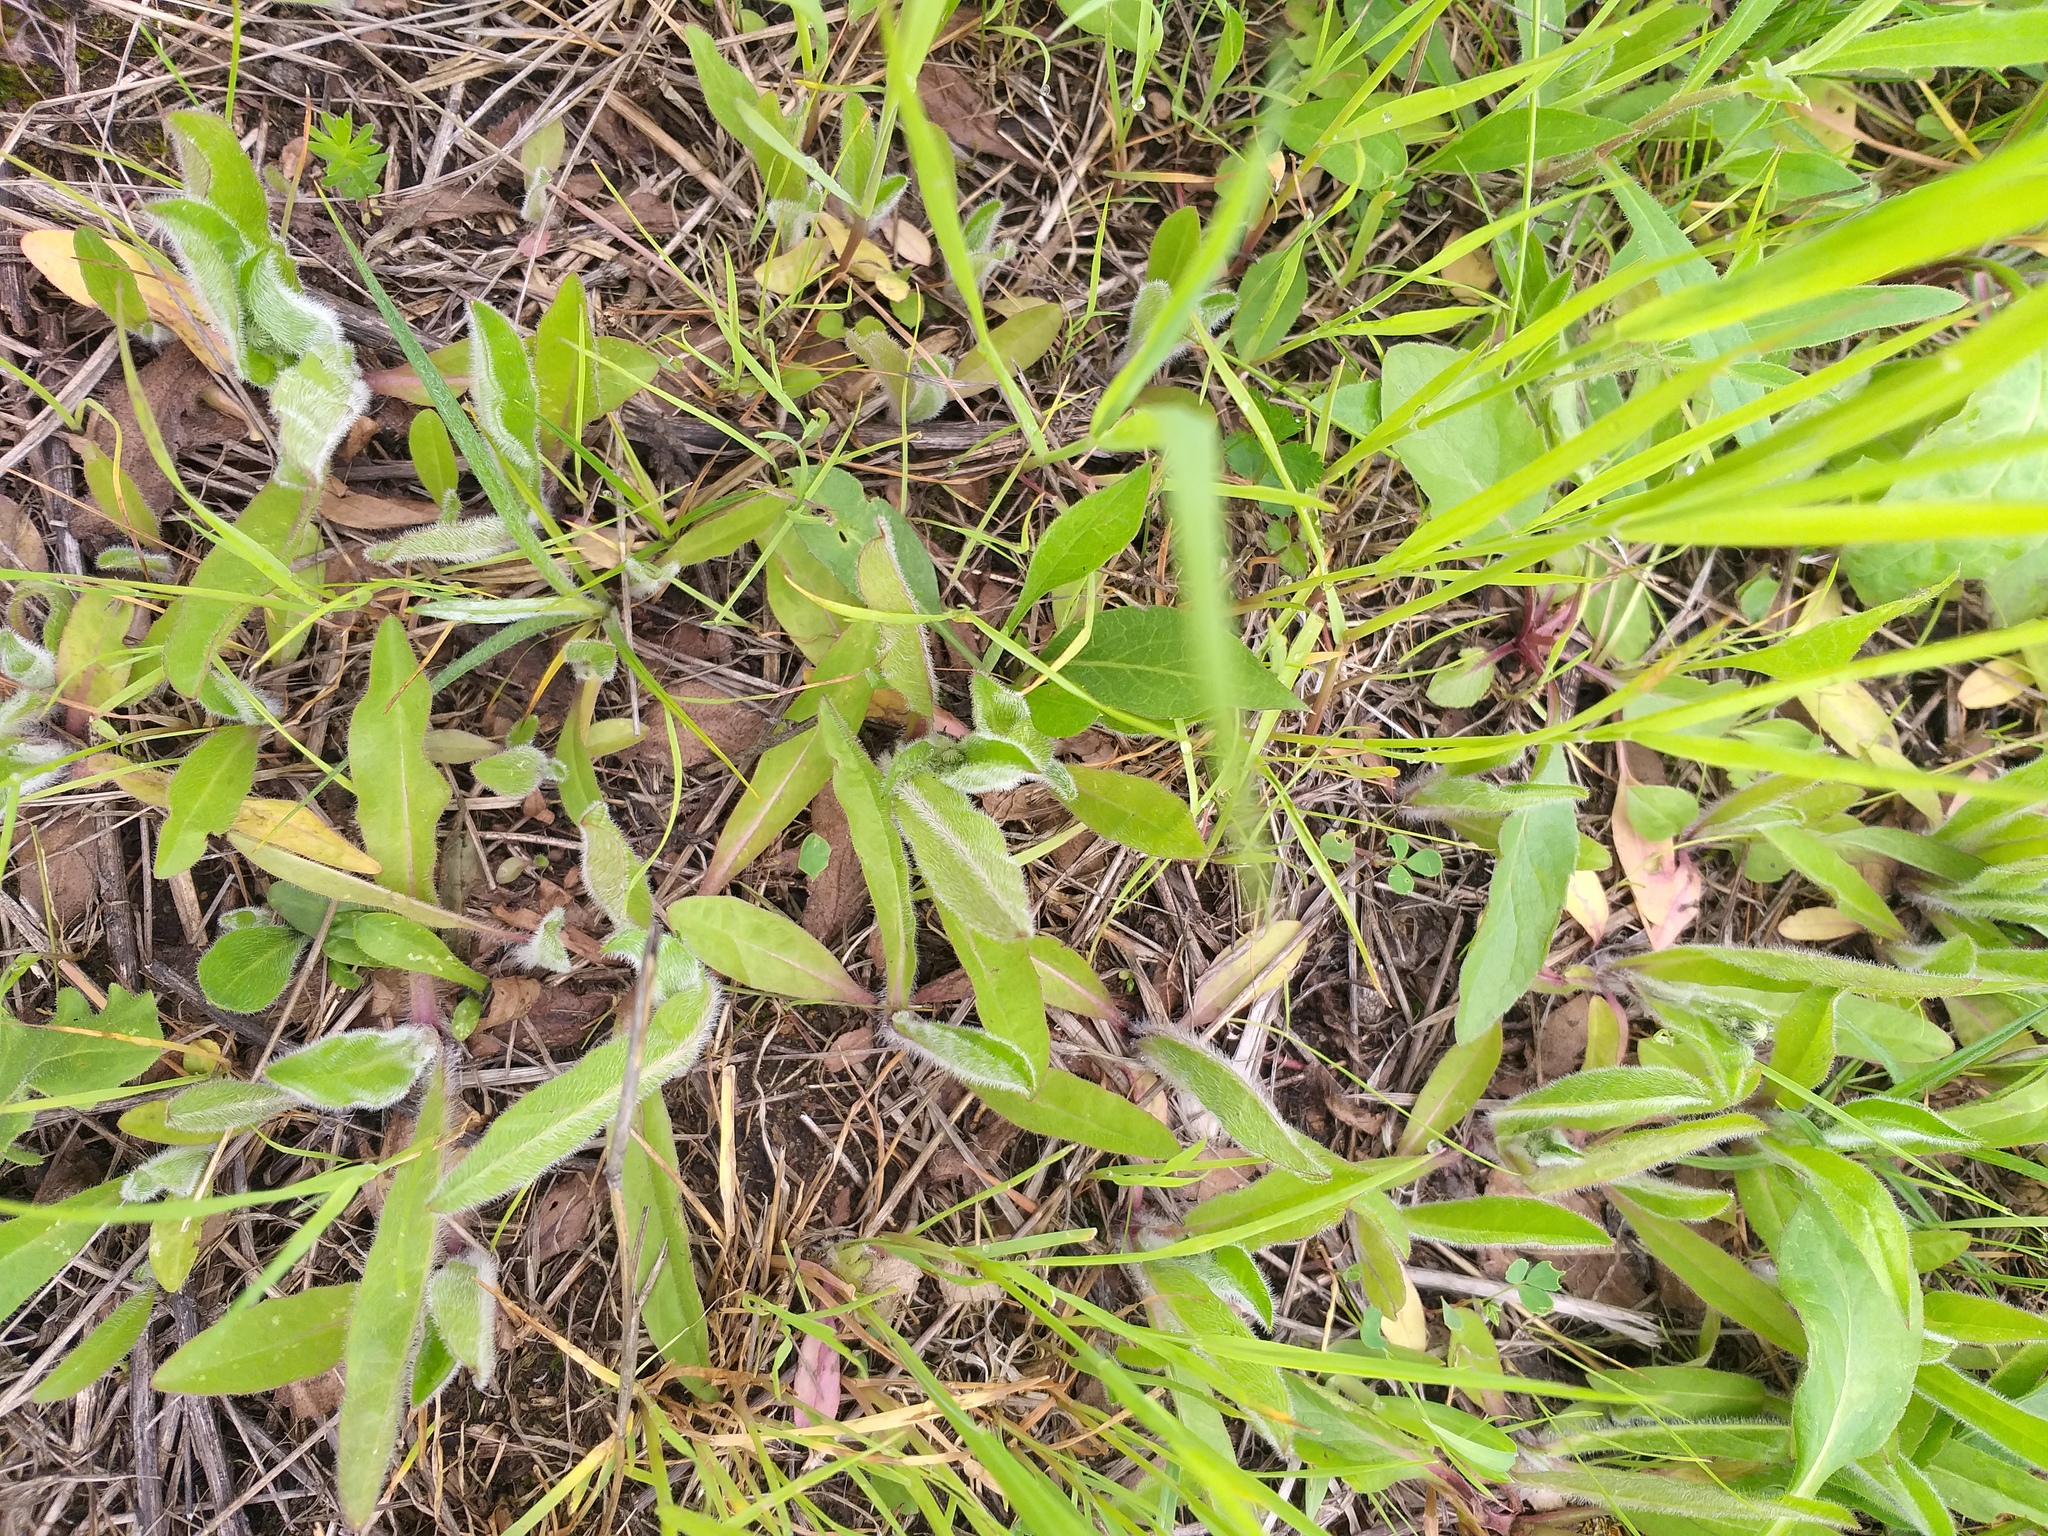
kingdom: Plantae
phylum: Tracheophyta
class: Magnoliopsida
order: Asterales
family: Asteraceae
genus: Pilosella
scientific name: Pilosella
